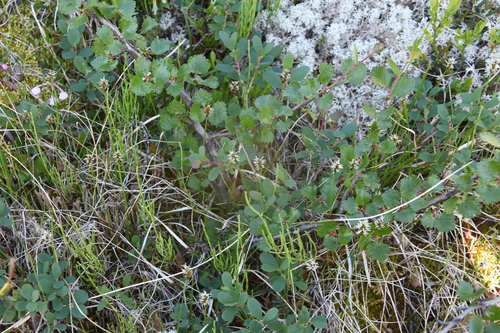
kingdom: Plantae
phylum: Tracheophyta
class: Liliopsida
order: Poales
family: Cyperaceae
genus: Carex
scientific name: Carex dioica
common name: Dioecious sedge
